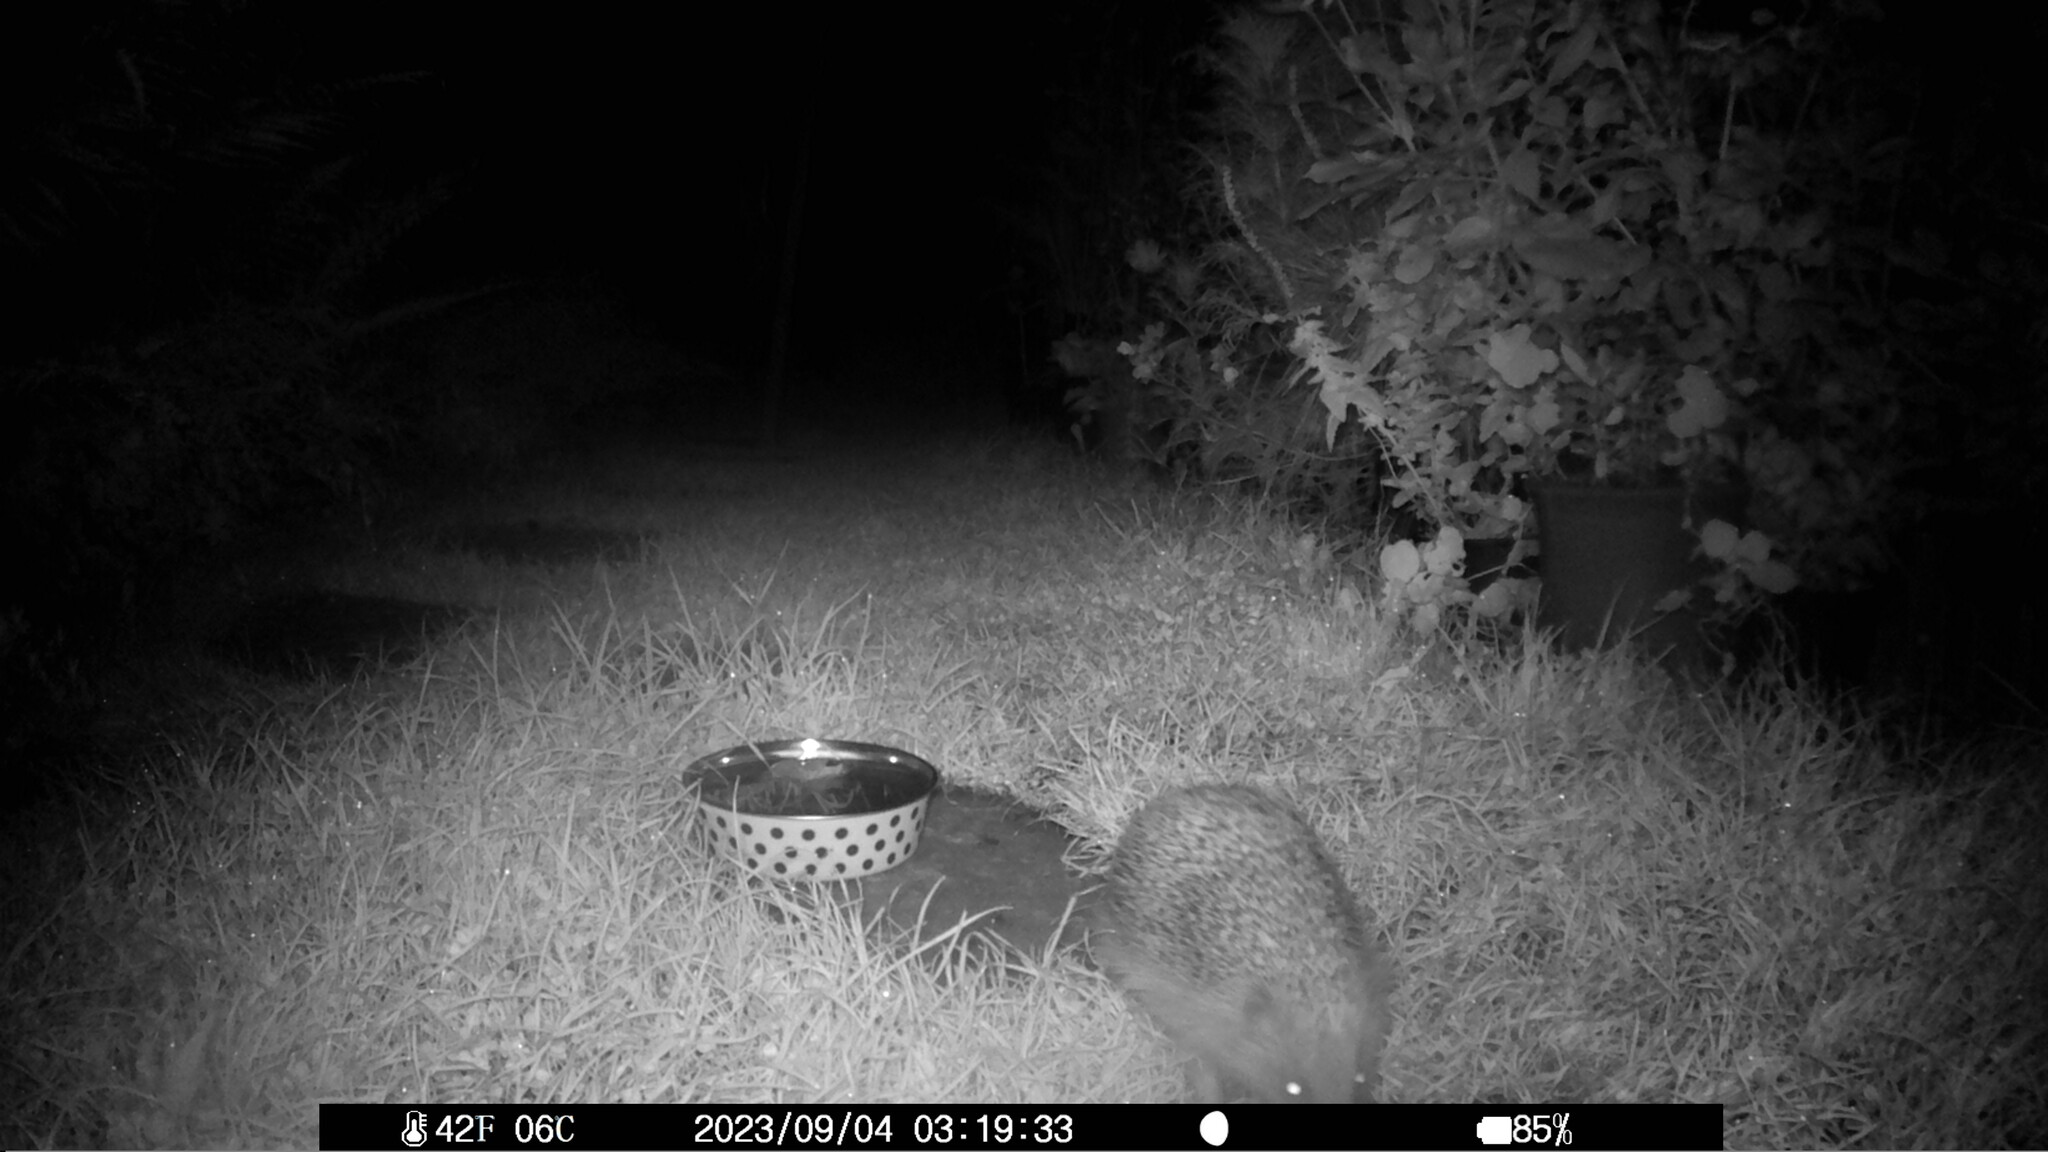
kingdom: Animalia
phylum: Chordata
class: Mammalia
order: Erinaceomorpha
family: Erinaceidae
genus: Erinaceus
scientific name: Erinaceus europaeus
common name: West european hedgehog
